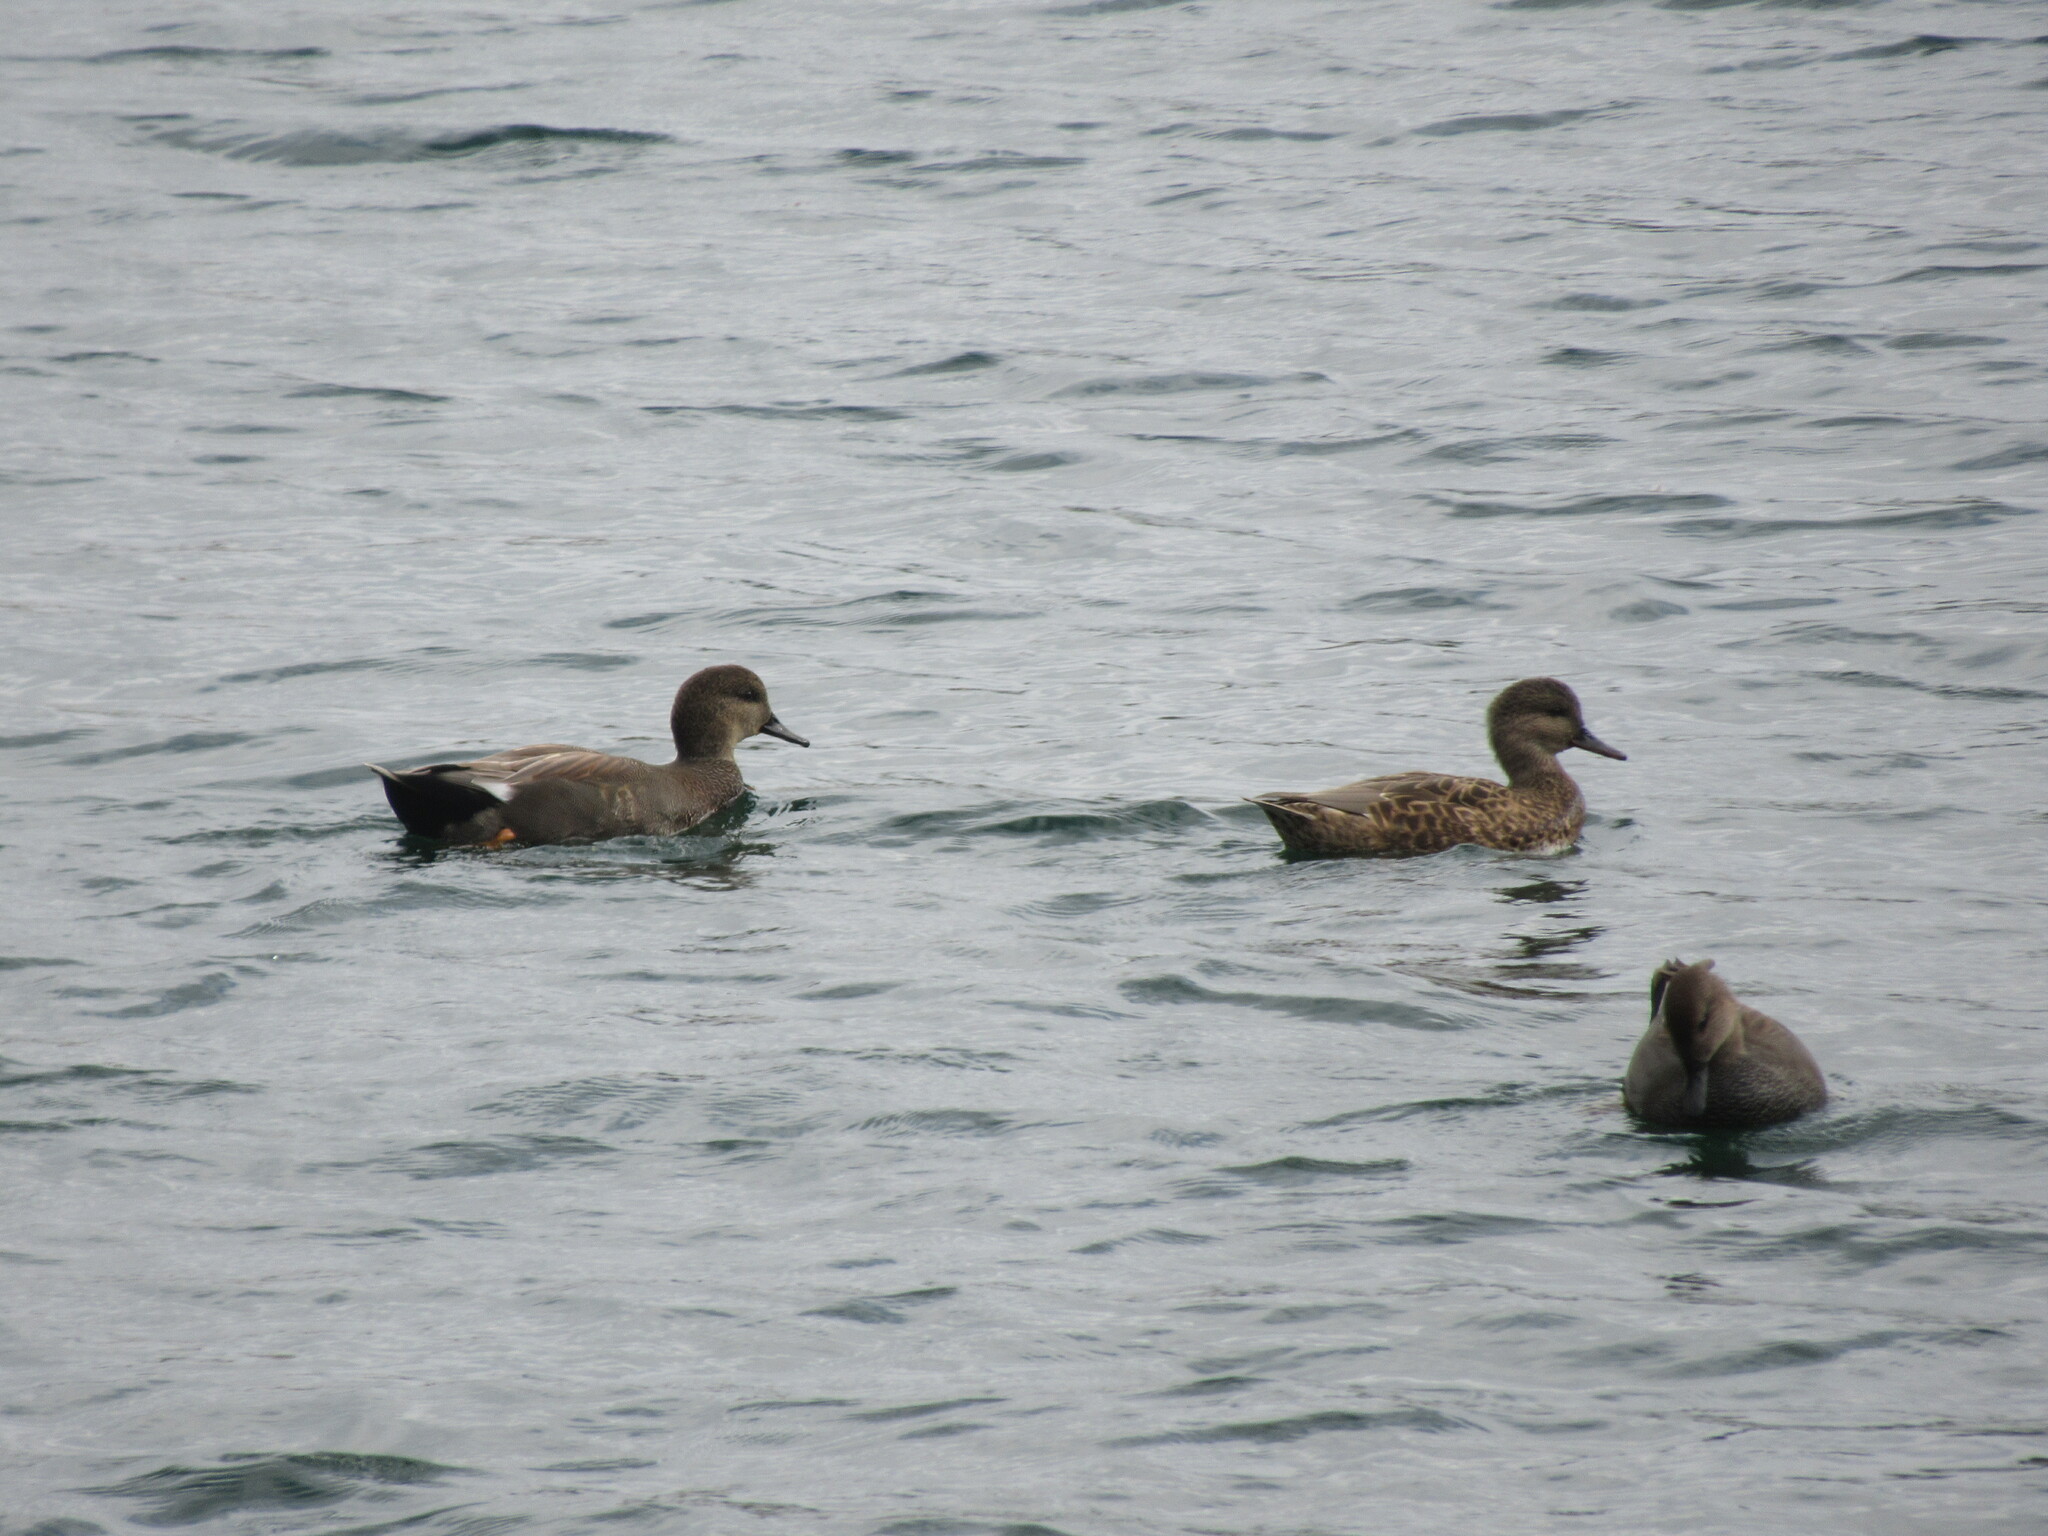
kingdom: Animalia
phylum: Chordata
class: Aves
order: Anseriformes
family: Anatidae
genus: Mareca
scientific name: Mareca strepera
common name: Gadwall
